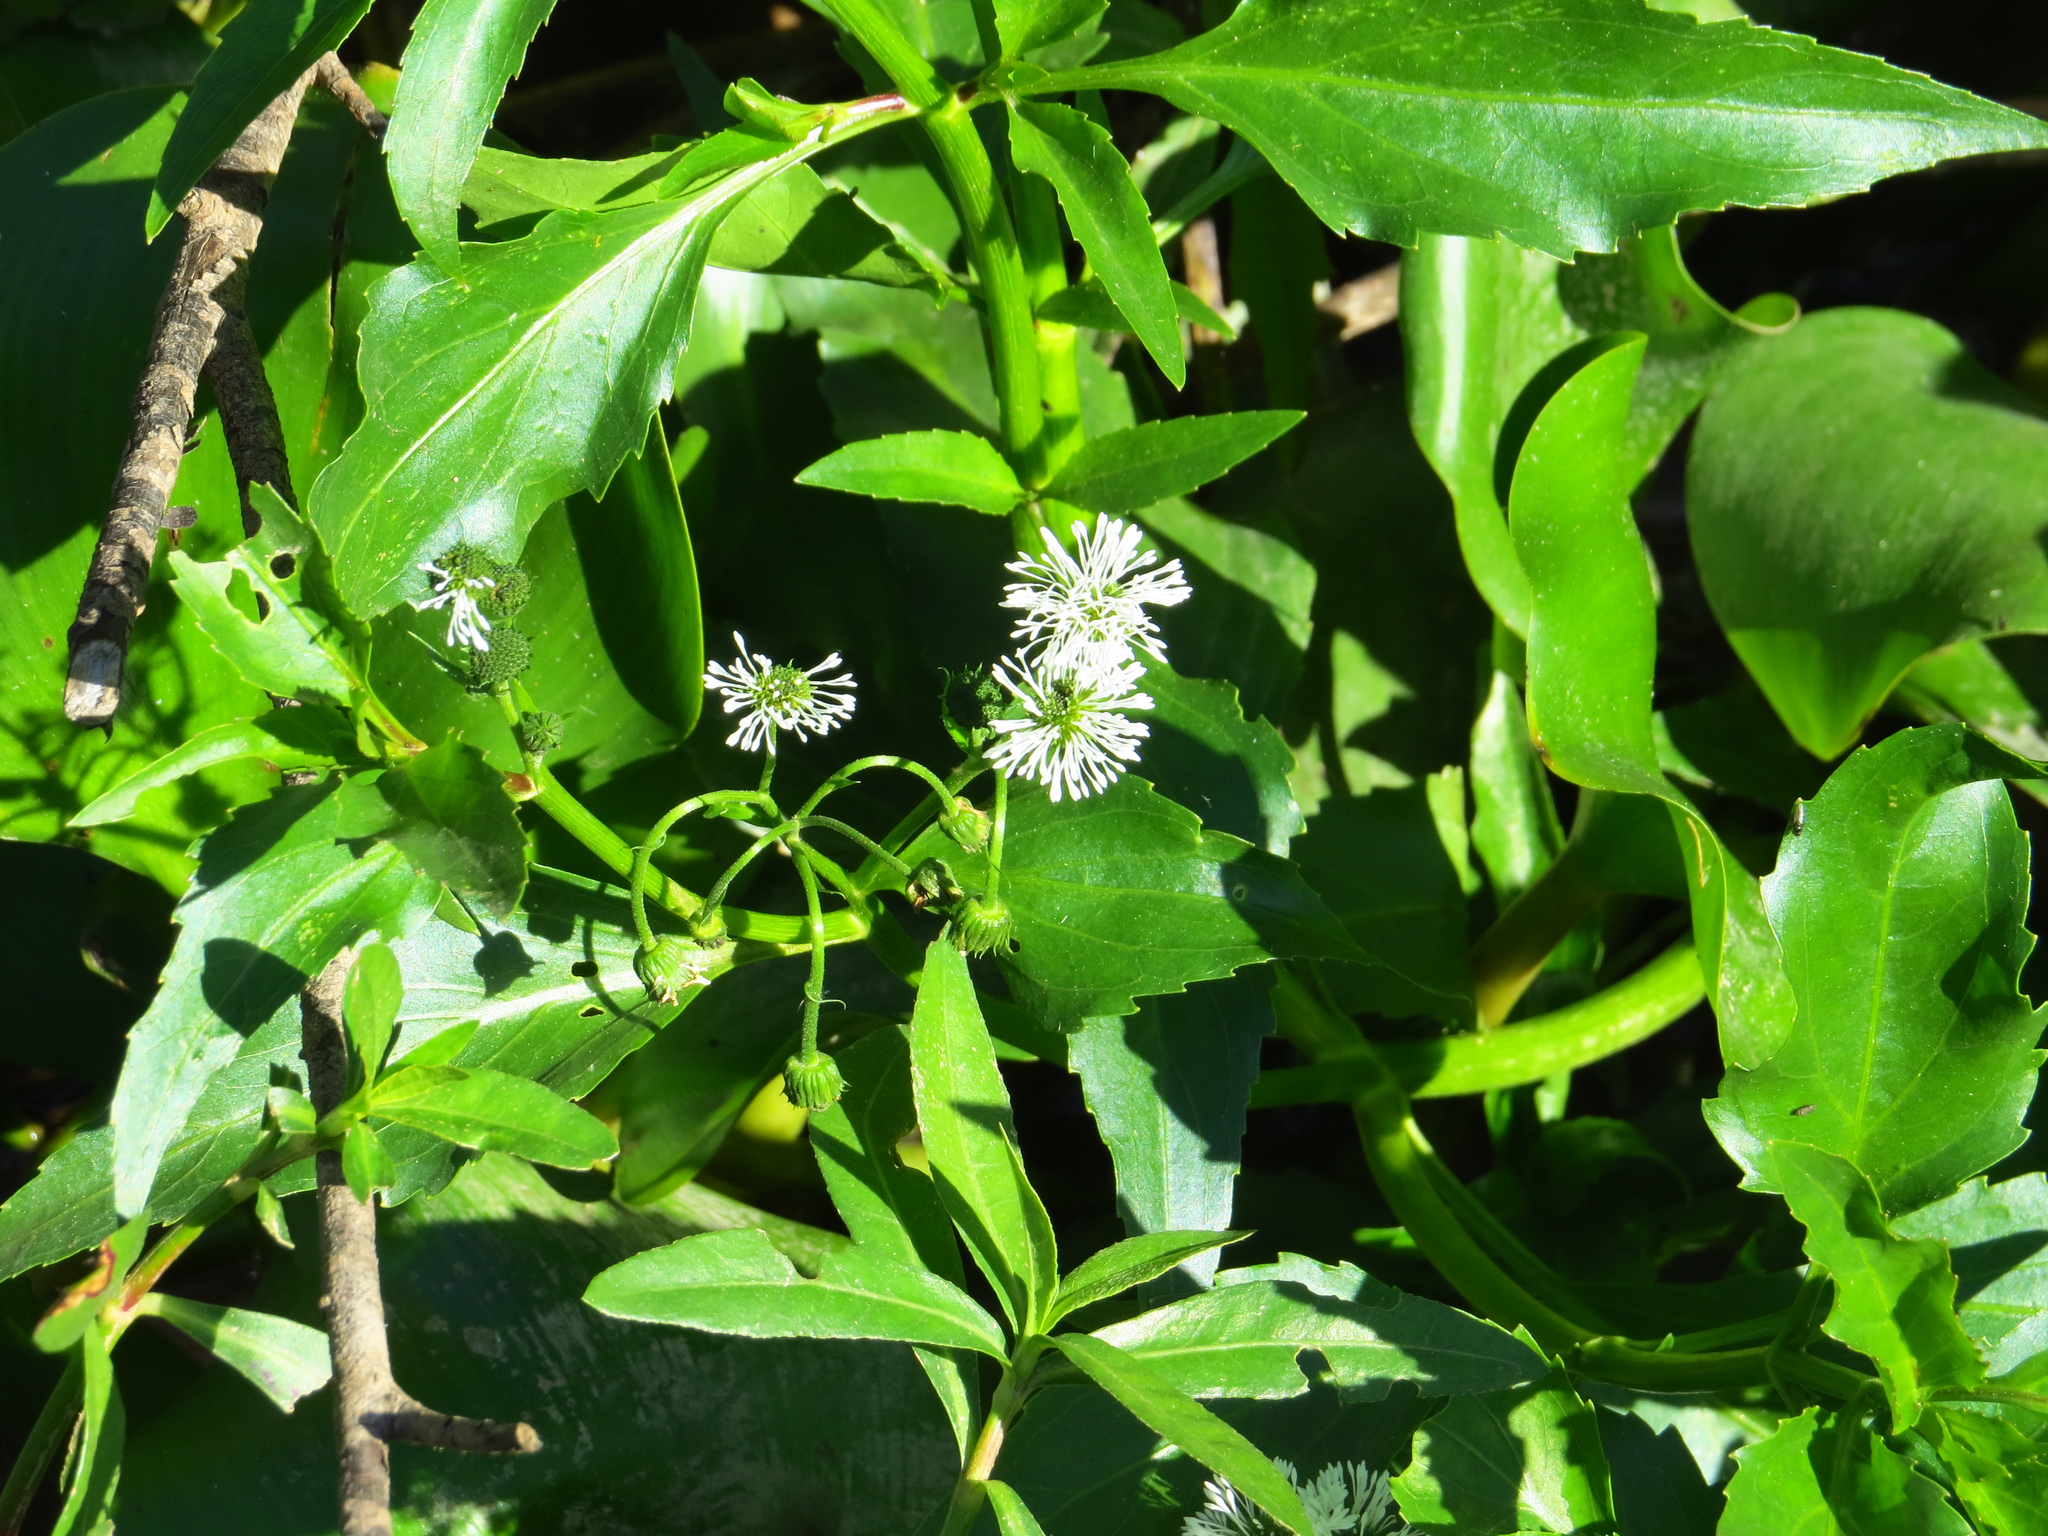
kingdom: Plantae
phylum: Tracheophyta
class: Magnoliopsida
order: Asterales
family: Asteraceae
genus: Gymnocoronis
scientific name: Gymnocoronis spilanthoides
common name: Senegal teaplant
